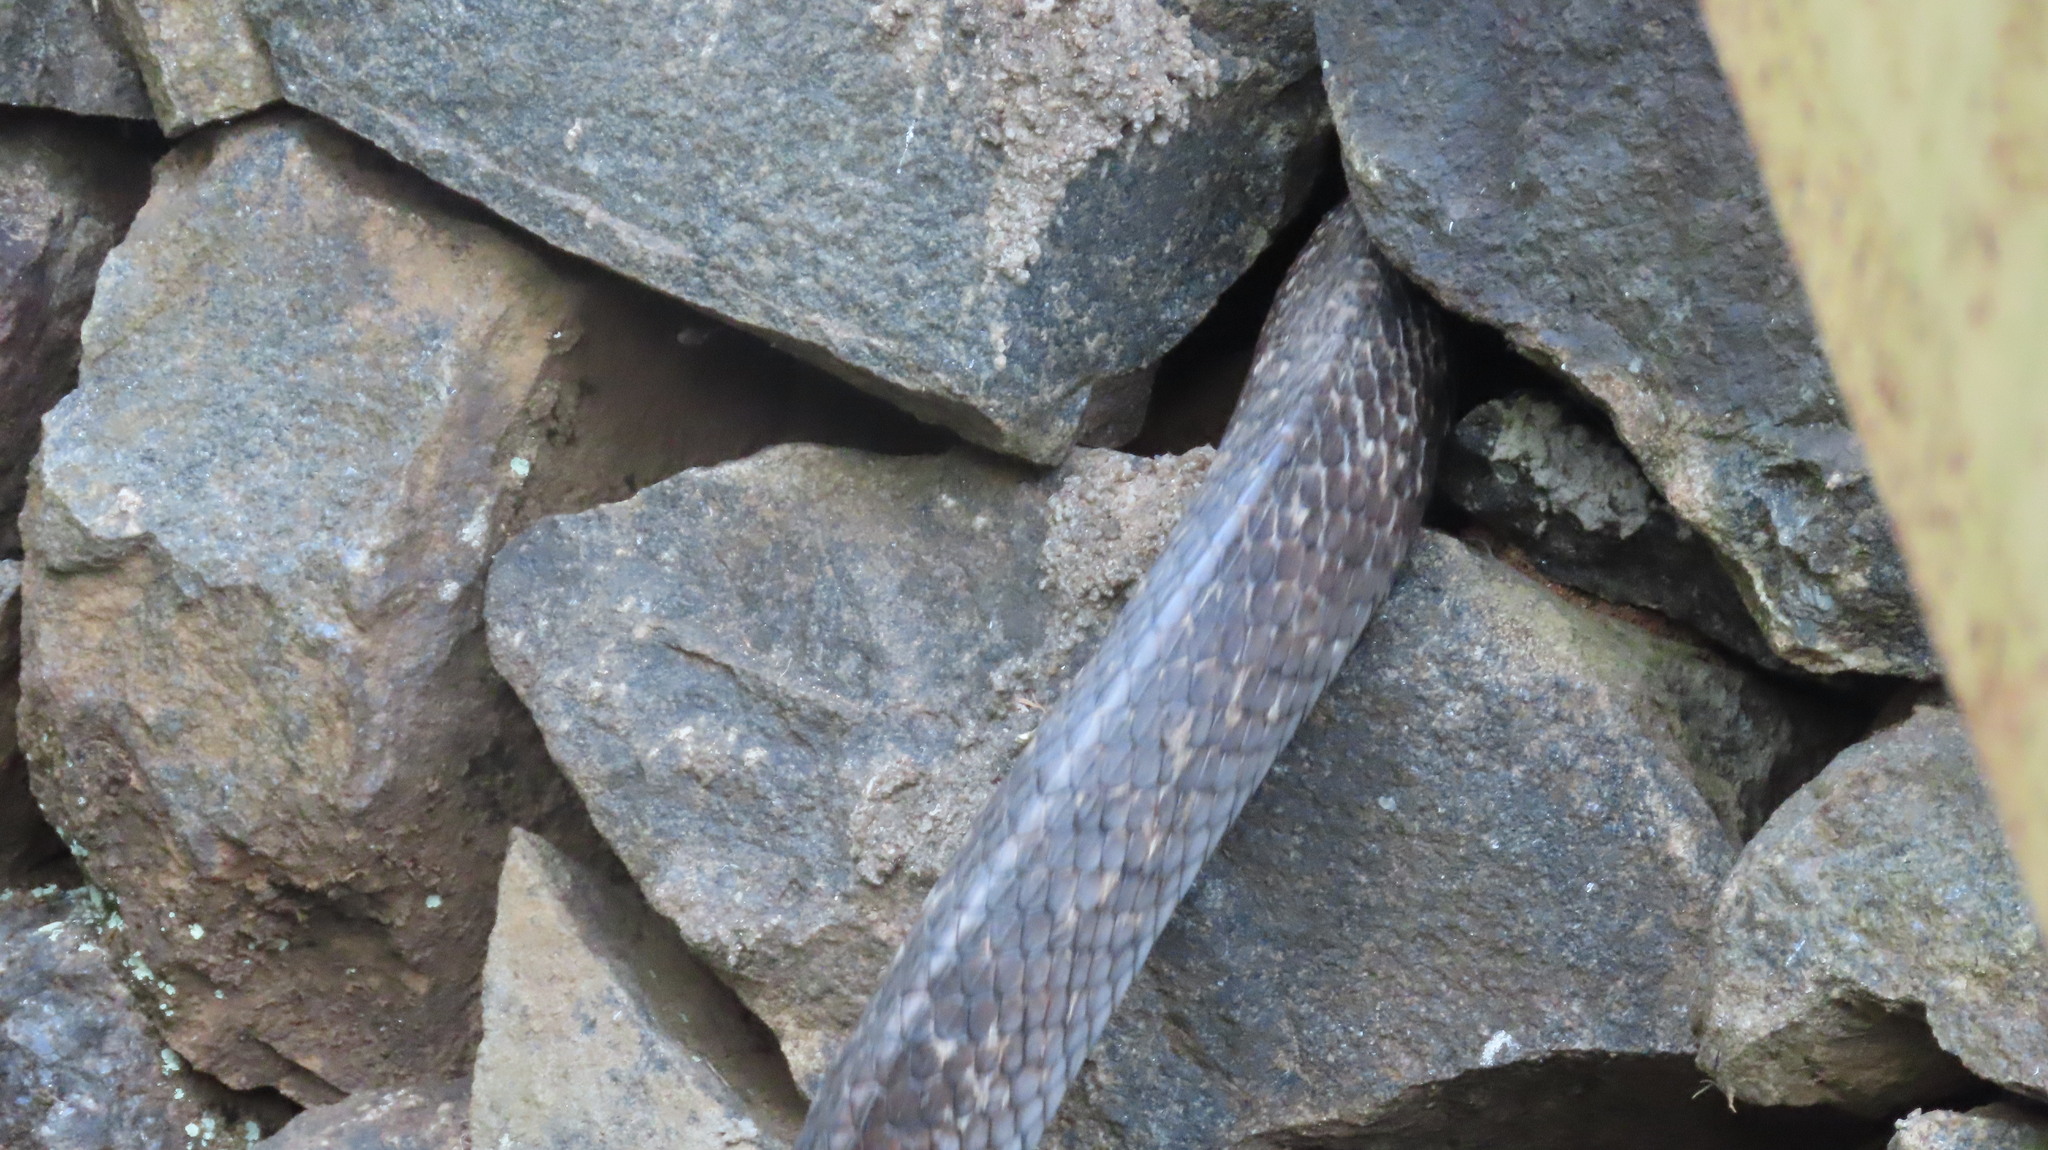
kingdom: Animalia
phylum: Chordata
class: Squamata
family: Colubridae
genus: Ptyas
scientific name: Ptyas mucosa
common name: Oriental ratsnake
